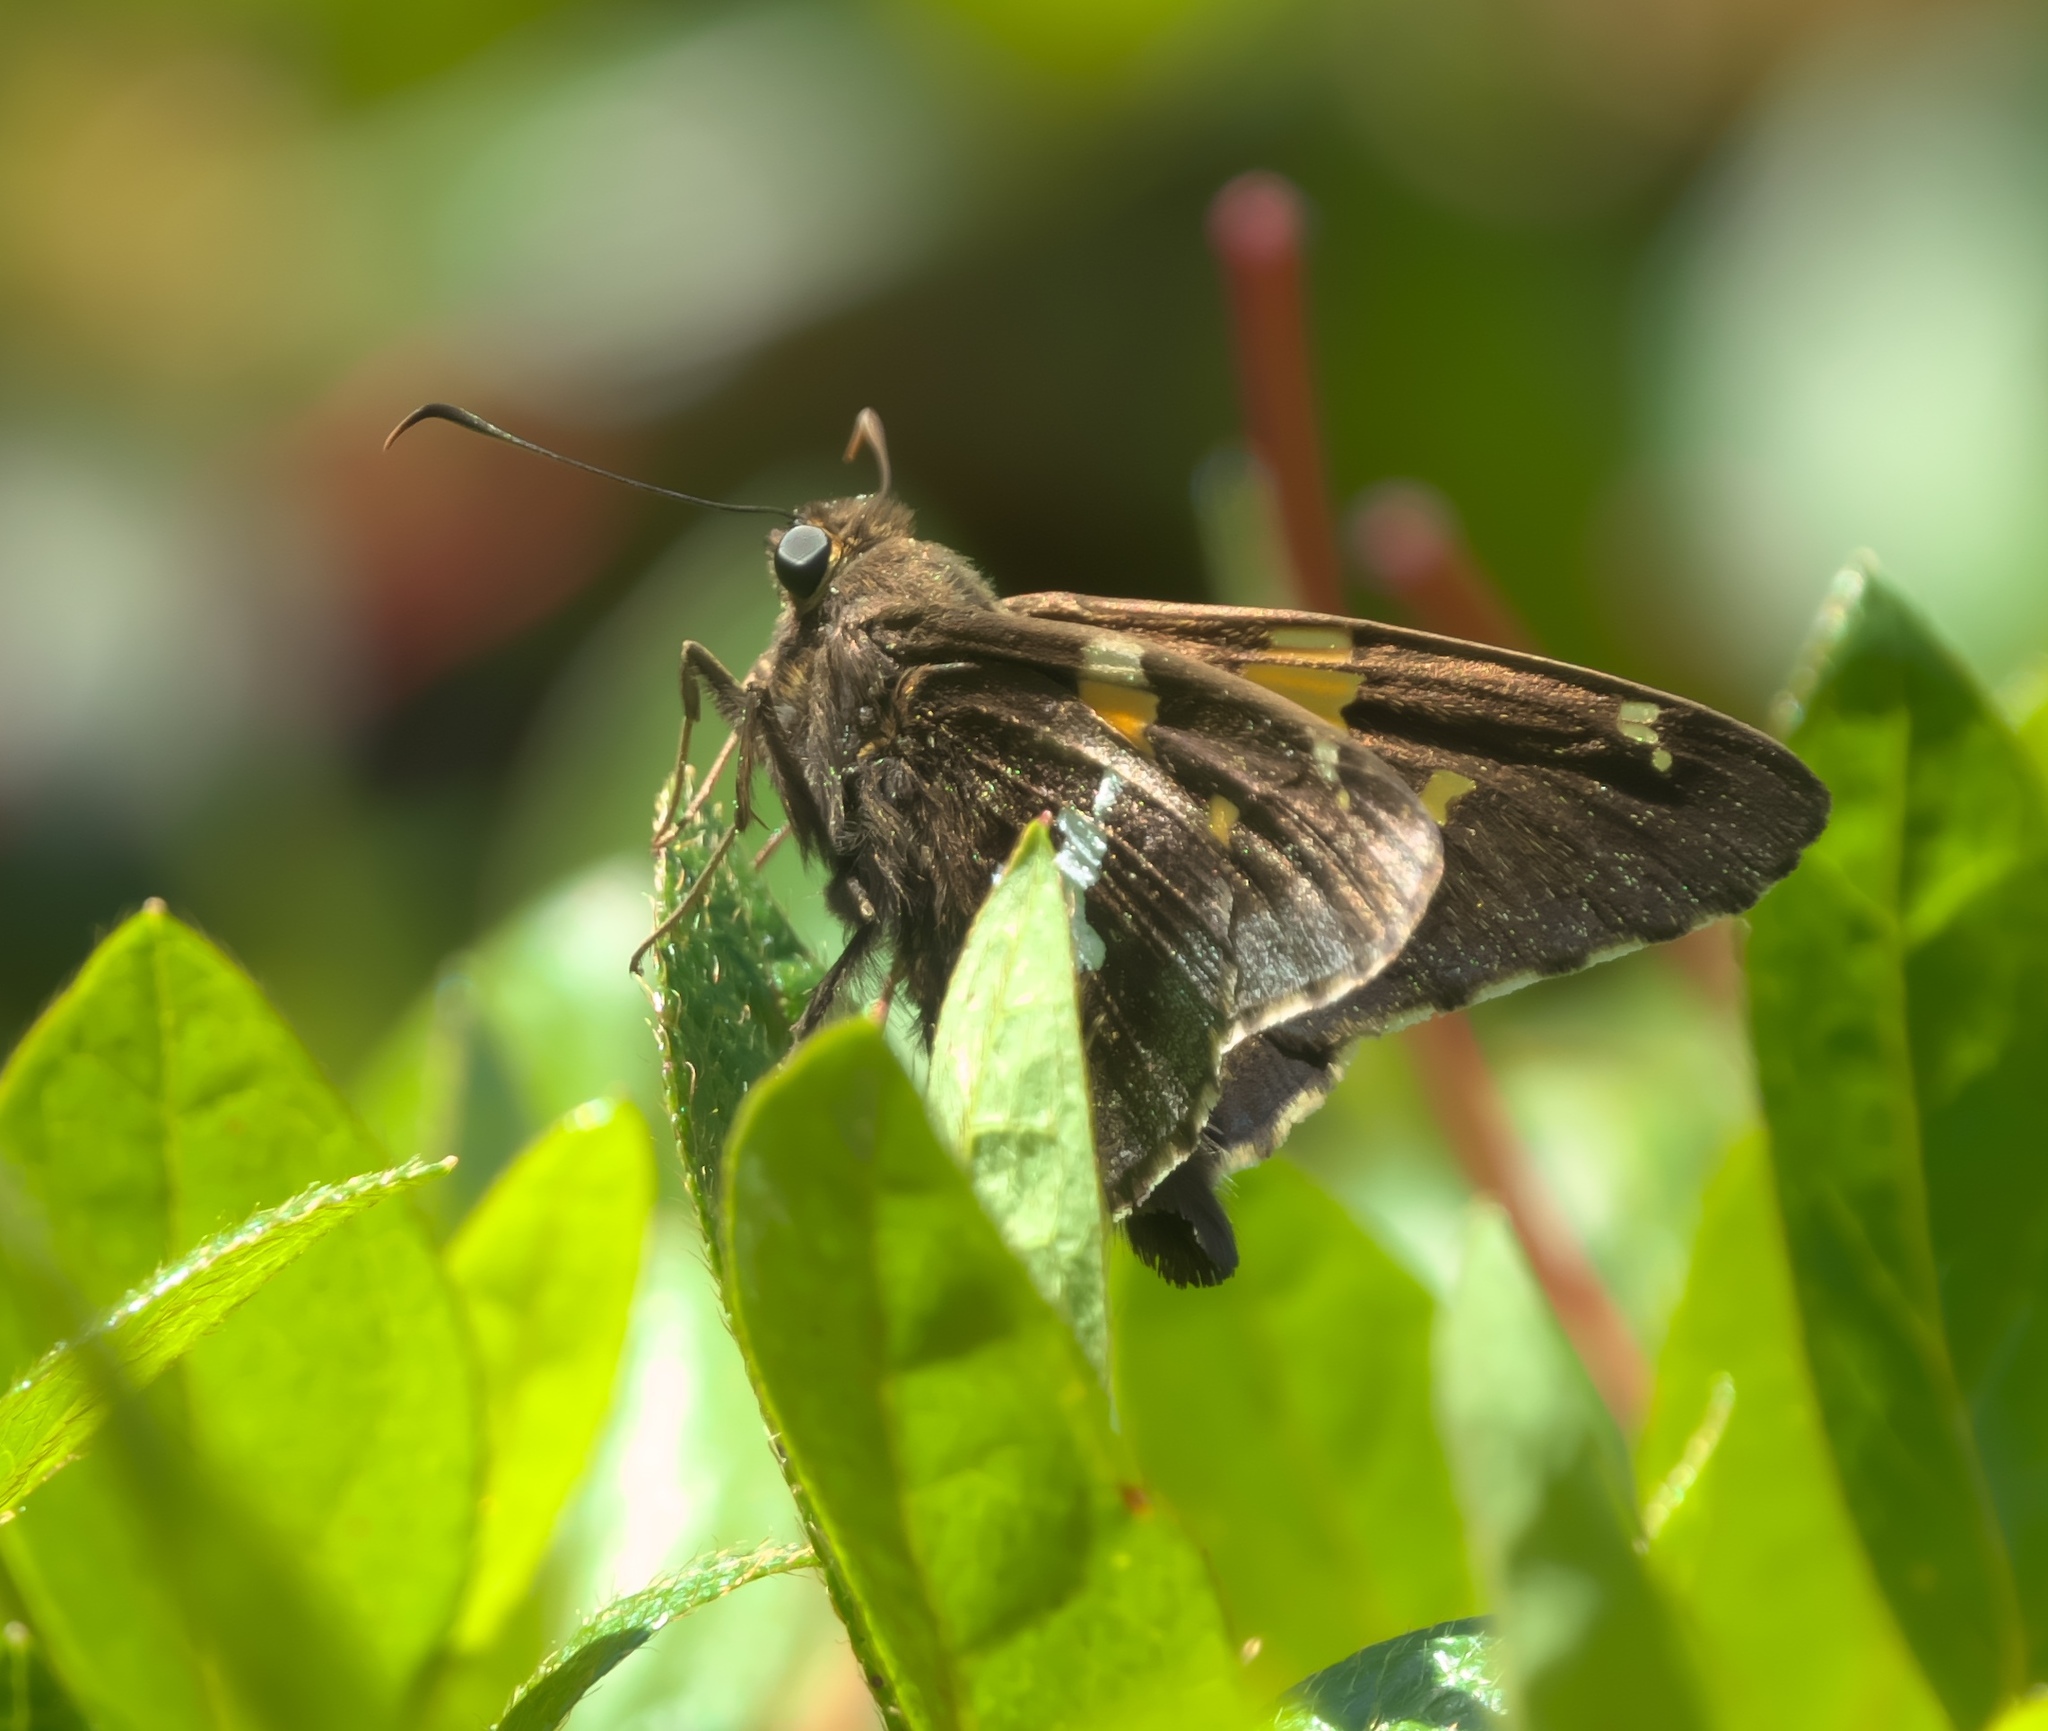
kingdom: Animalia
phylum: Arthropoda
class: Insecta
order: Lepidoptera
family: Hesperiidae
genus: Epargyreus
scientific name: Epargyreus clarus
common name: Silver-spotted skipper
